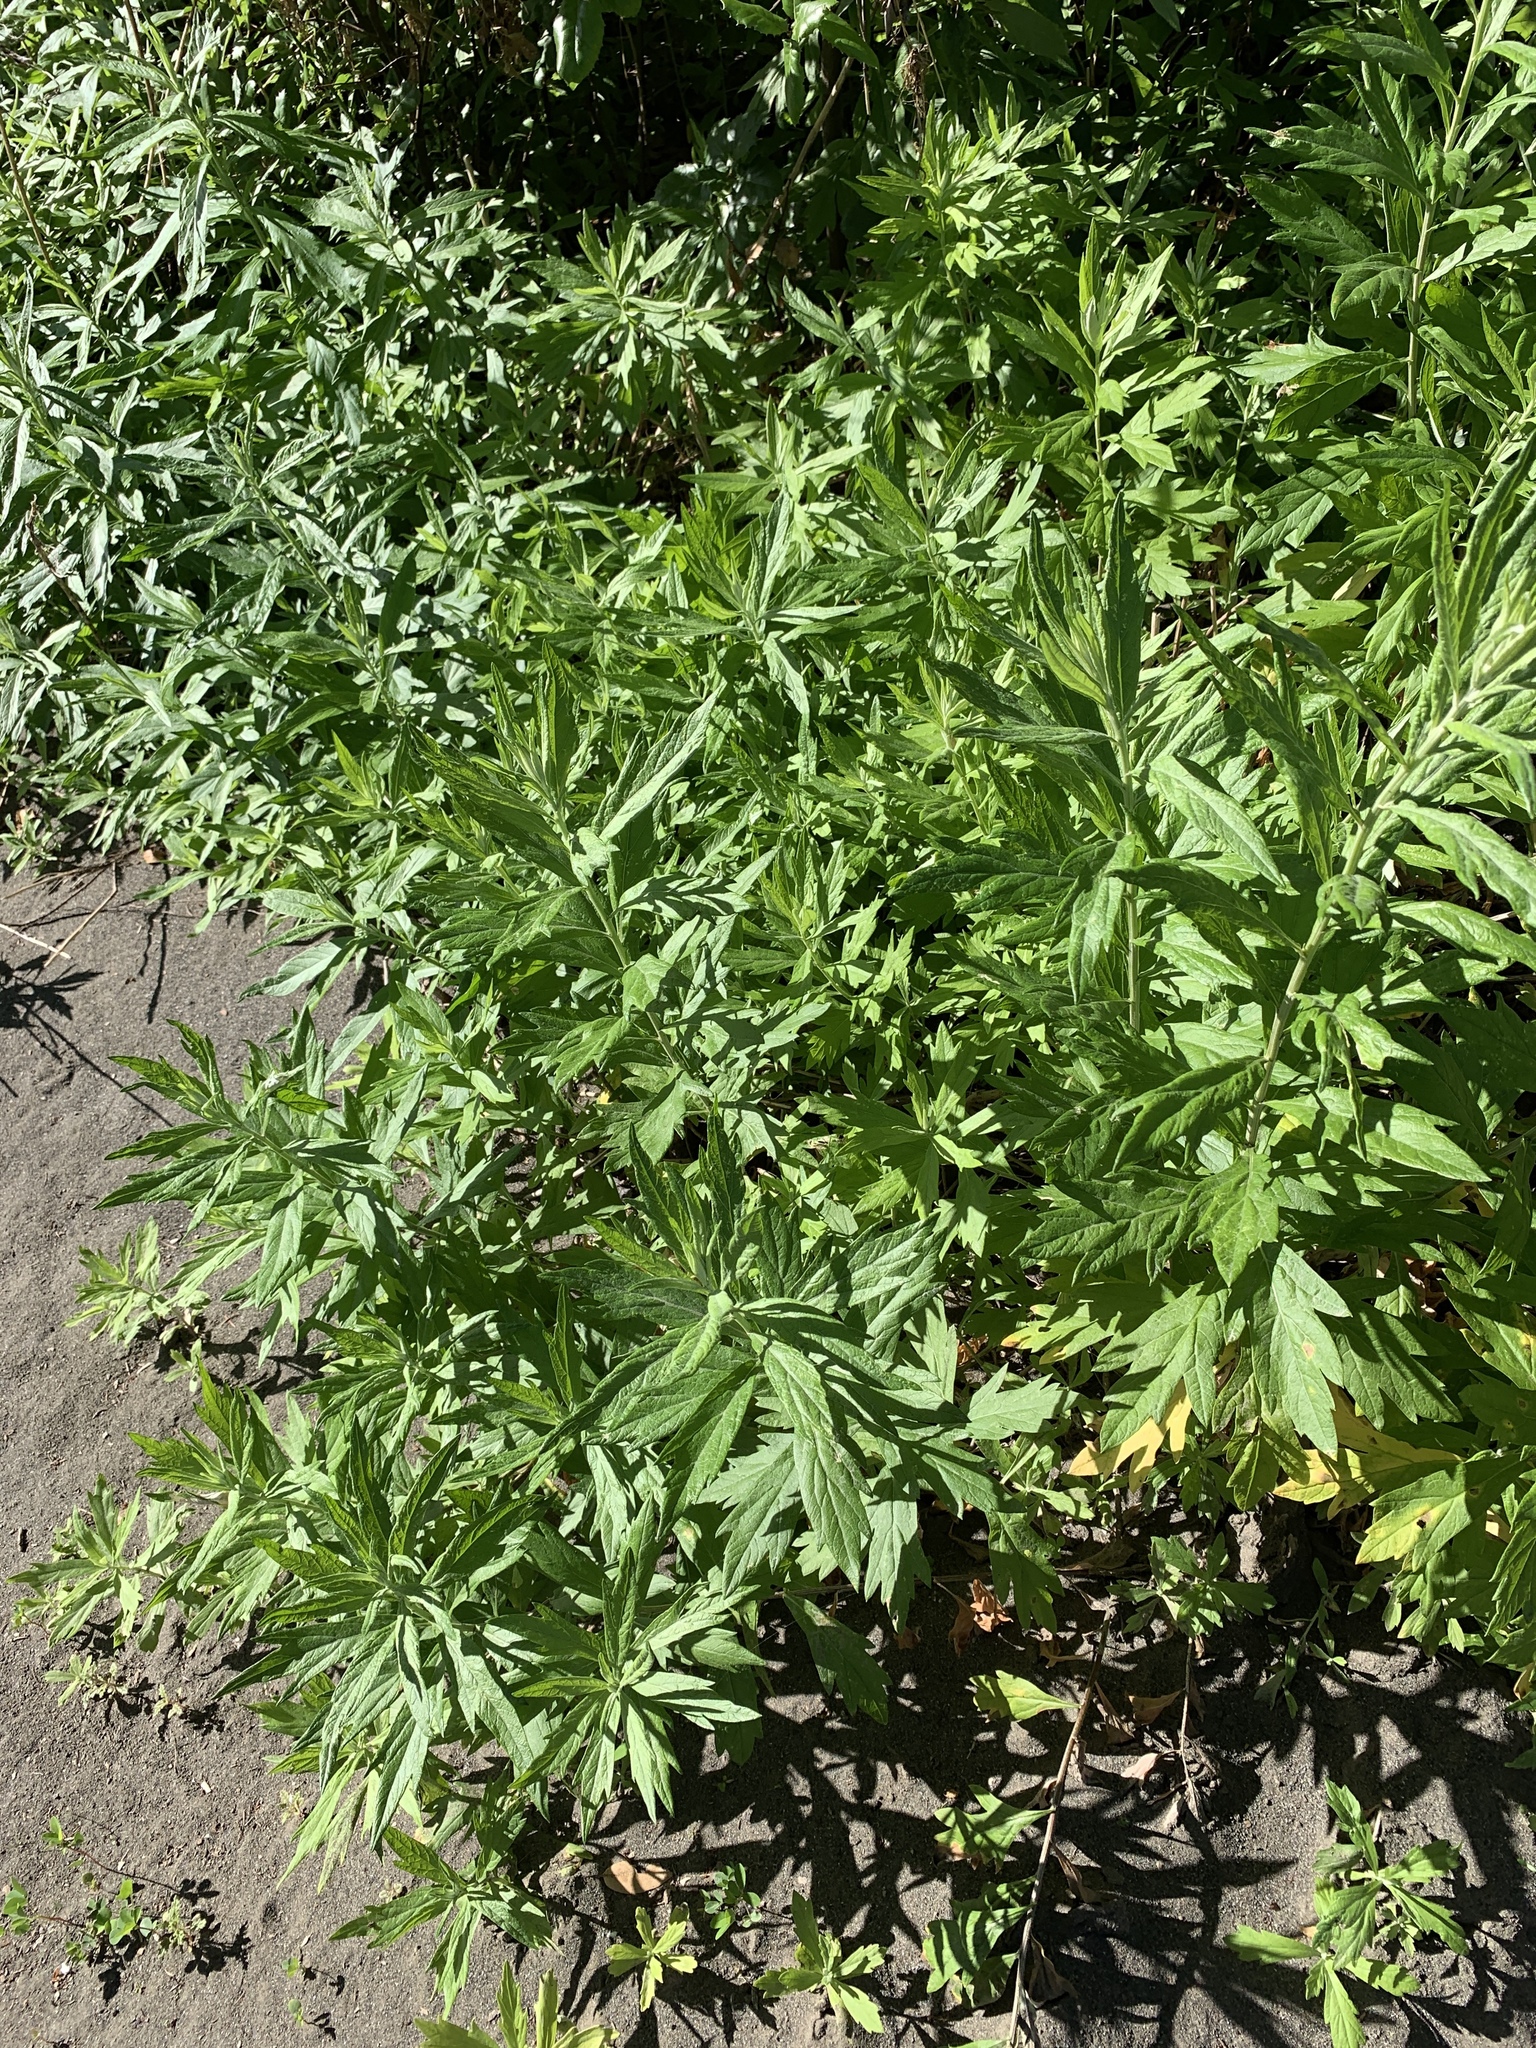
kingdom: Plantae
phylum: Tracheophyta
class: Magnoliopsida
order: Asterales
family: Asteraceae
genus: Artemisia
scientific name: Artemisia douglasiana
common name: Northwest mugwort
